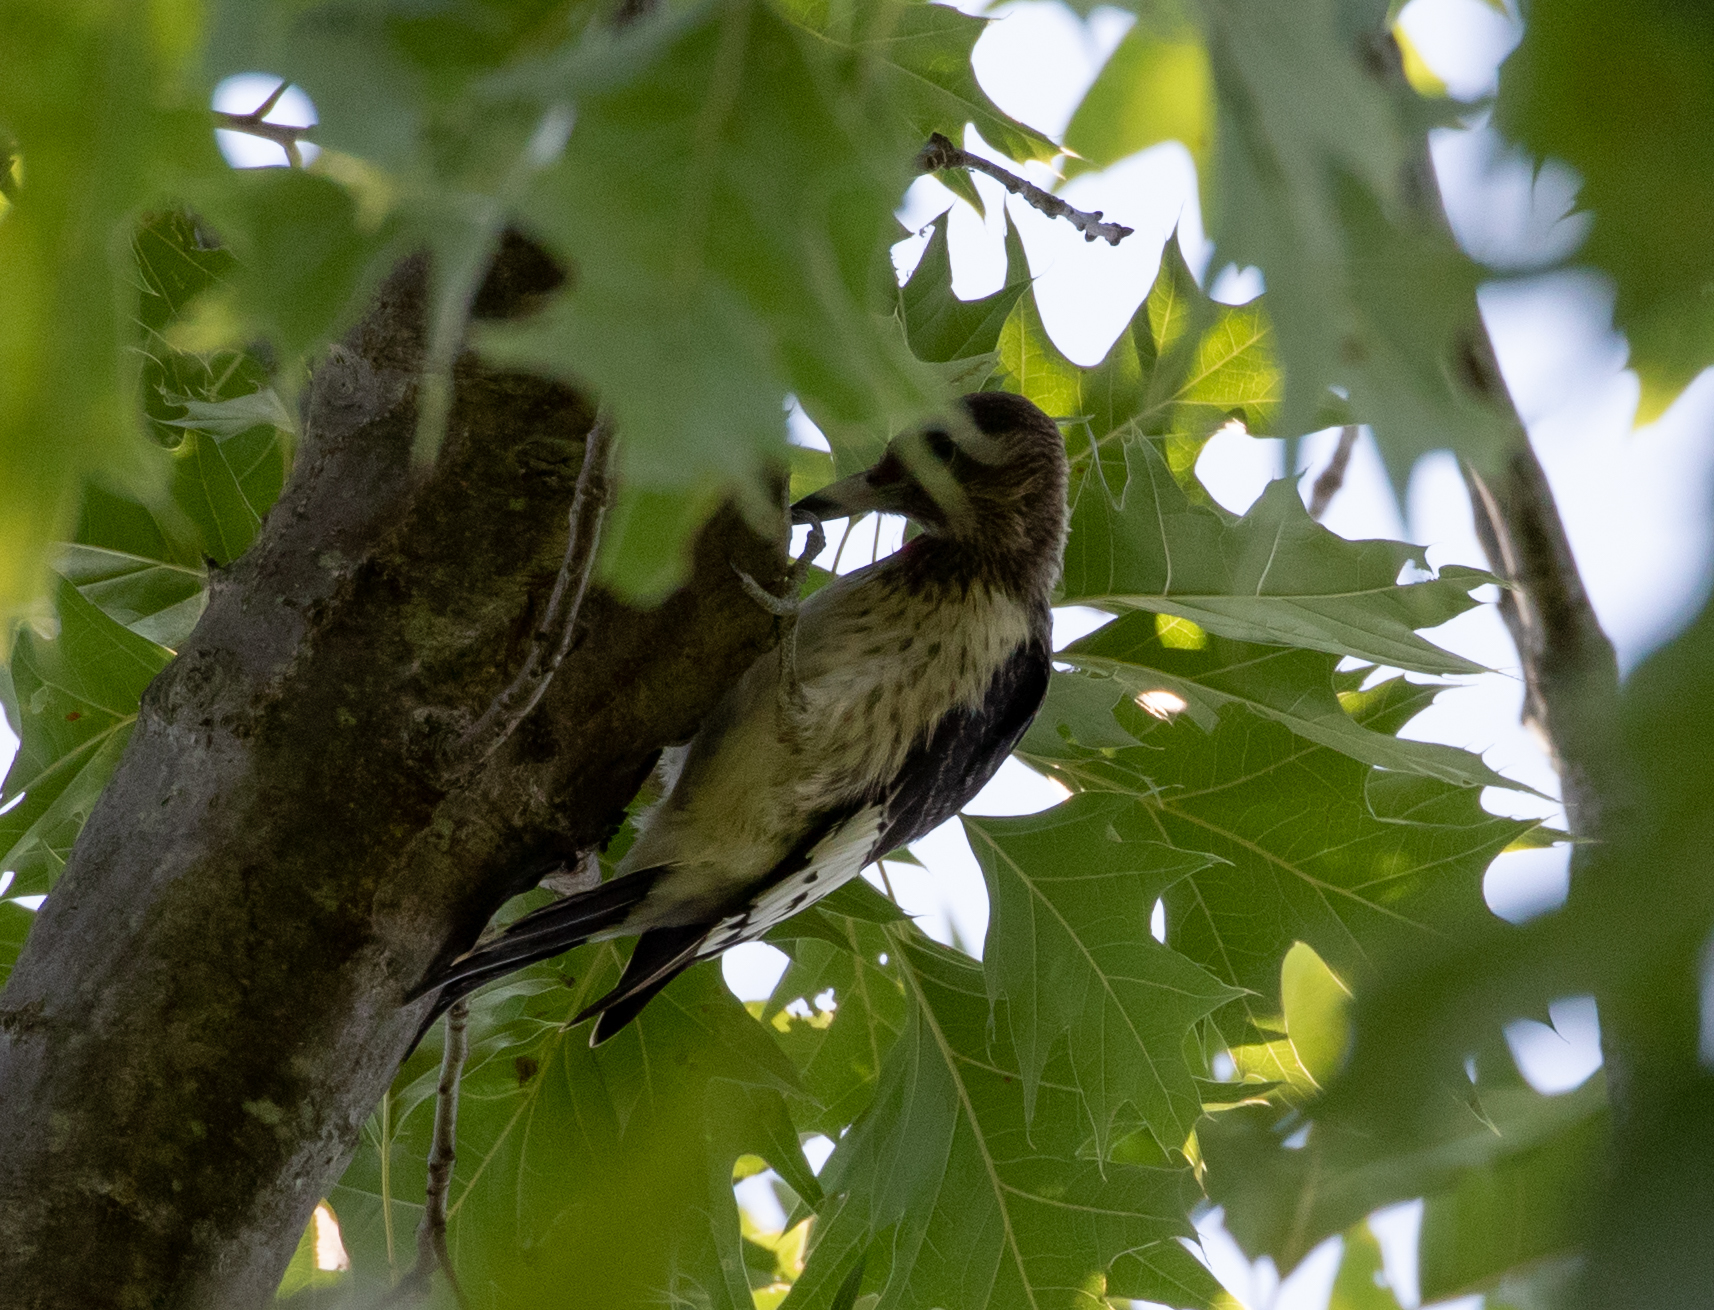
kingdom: Animalia
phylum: Chordata
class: Aves
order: Piciformes
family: Picidae
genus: Melanerpes
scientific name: Melanerpes erythrocephalus
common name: Red-headed woodpecker
